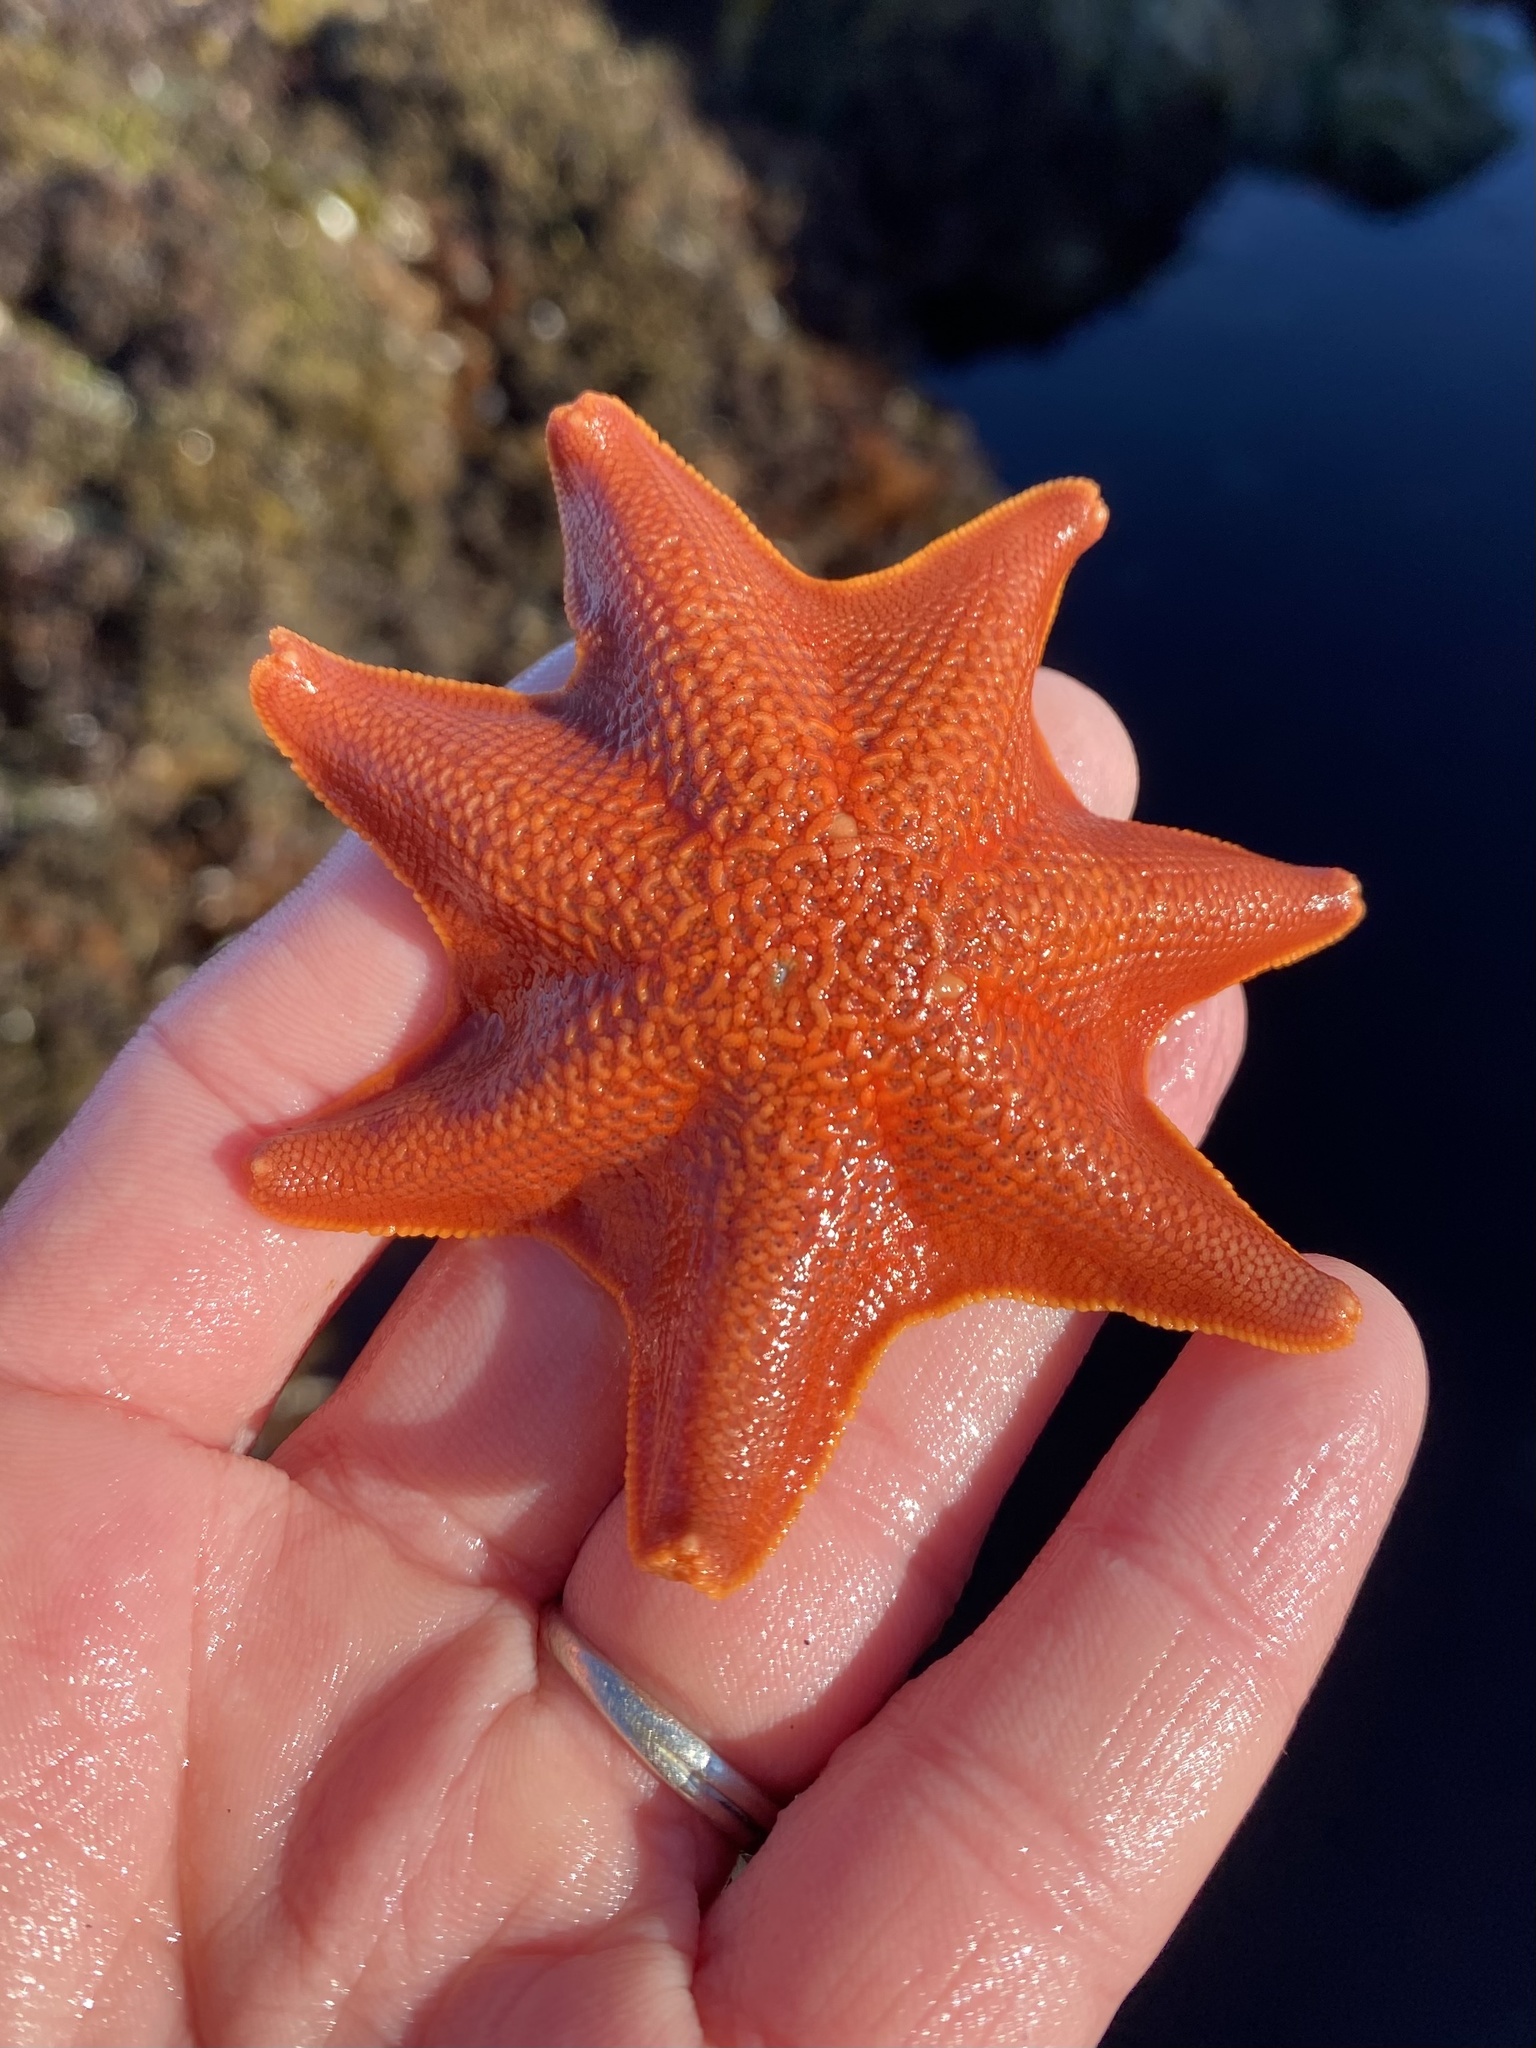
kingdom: Animalia
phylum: Echinodermata
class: Asteroidea
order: Valvatida
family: Asterinidae
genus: Patiria
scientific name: Patiria miniata
